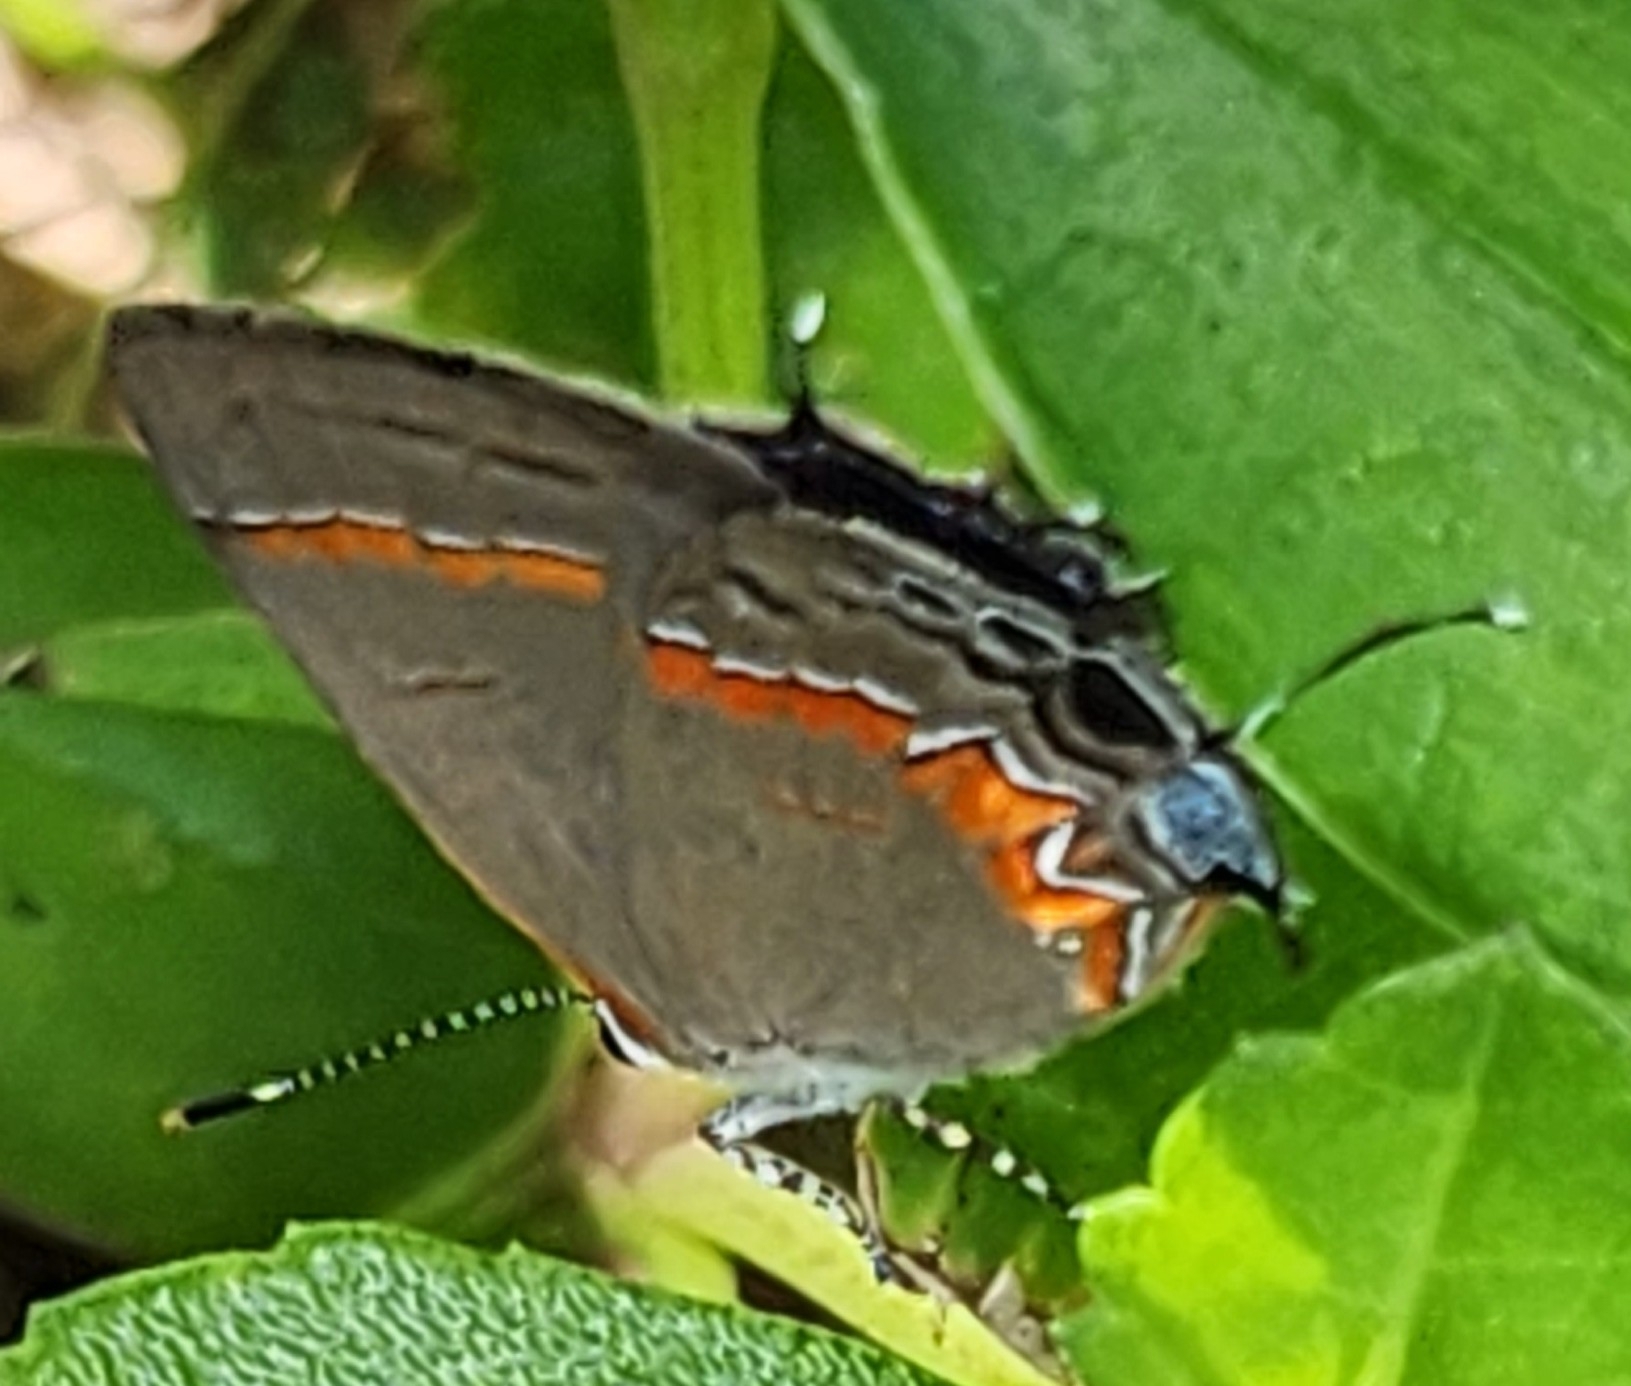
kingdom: Animalia
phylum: Arthropoda
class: Insecta
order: Lepidoptera
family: Lycaenidae
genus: Calycopis
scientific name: Calycopis cecrops
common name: Red-banded hairstreak
